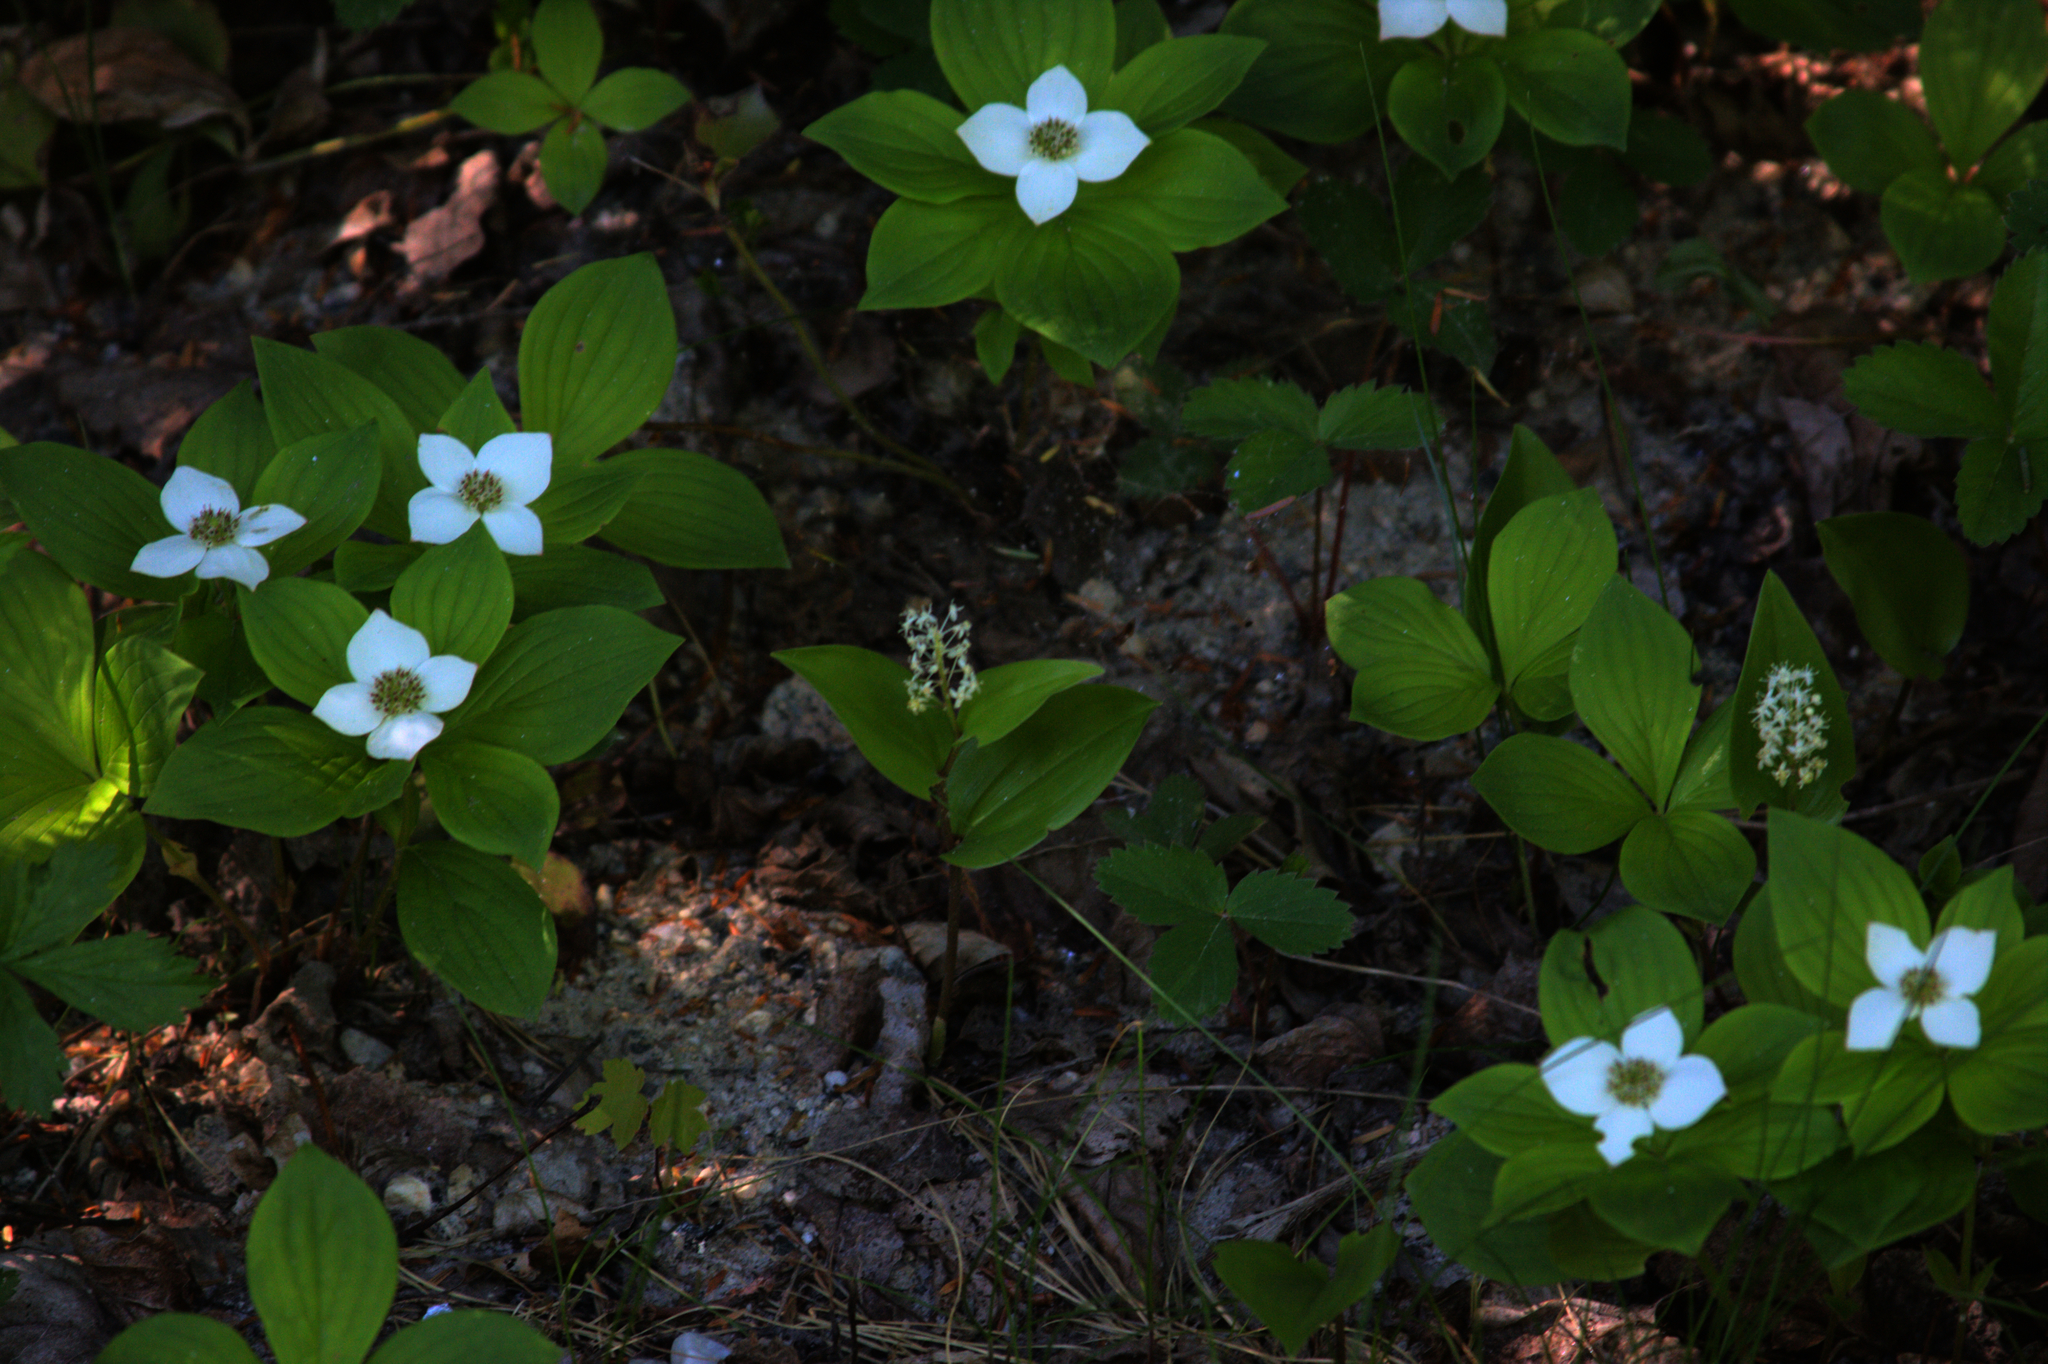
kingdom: Plantae
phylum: Tracheophyta
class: Liliopsida
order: Asparagales
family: Asparagaceae
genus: Maianthemum
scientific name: Maianthemum canadense
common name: False lily-of-the-valley
